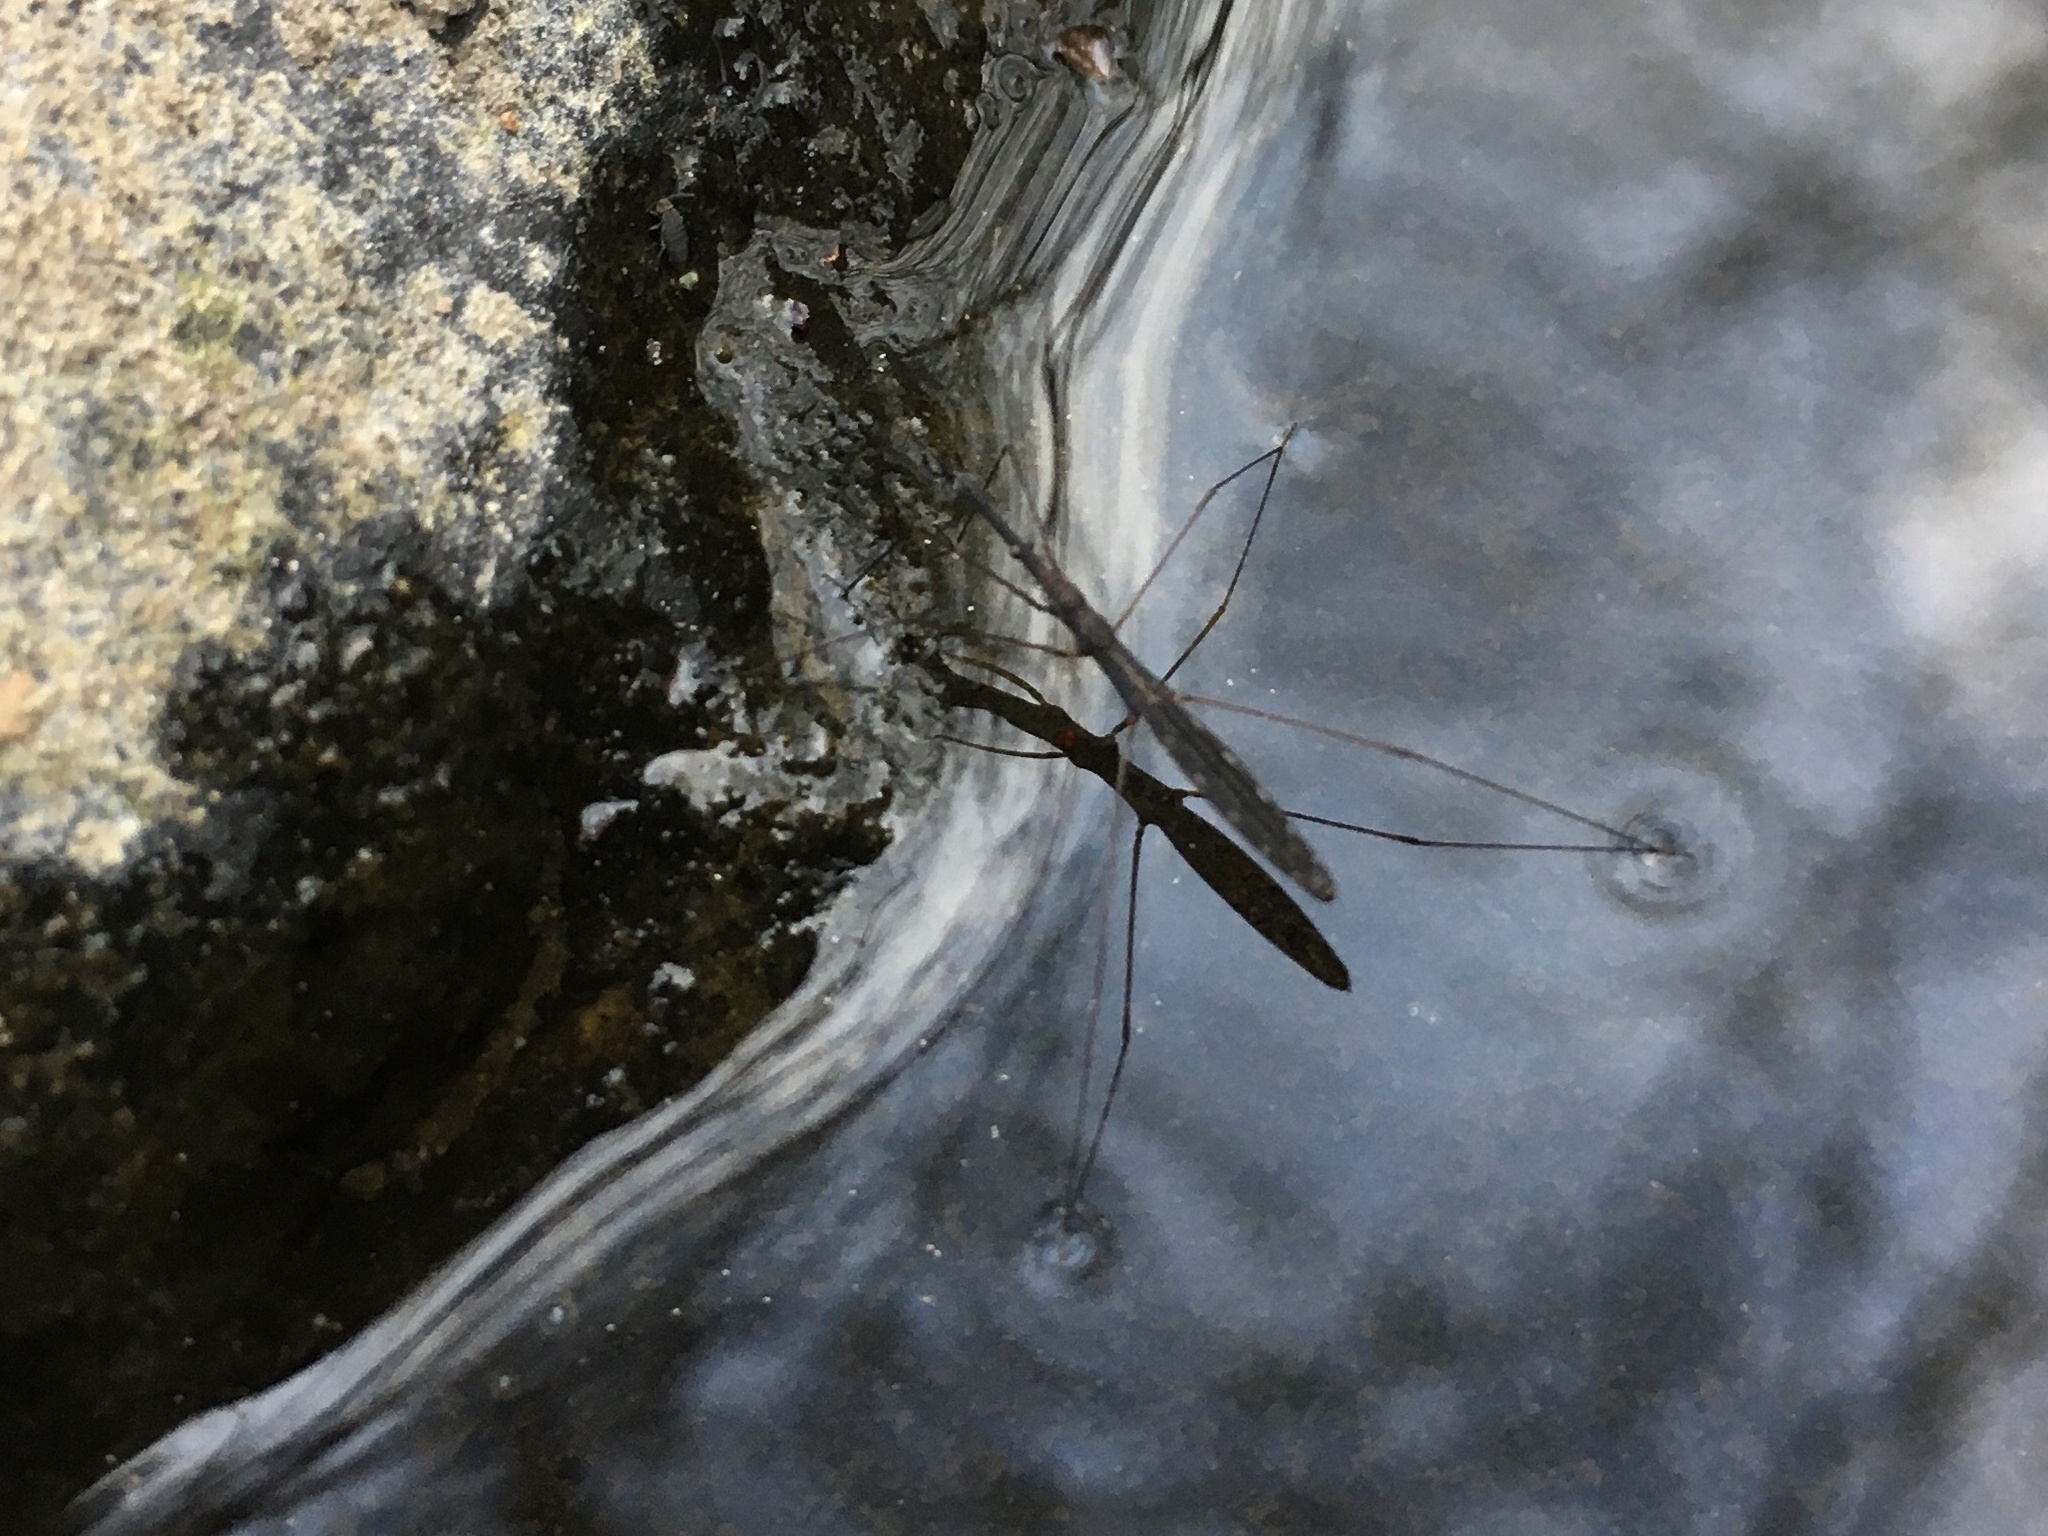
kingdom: Animalia
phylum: Arthropoda
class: Insecta
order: Hemiptera
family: Hydrometridae
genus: Hydrometra
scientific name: Hydrometra stagnorum
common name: Water measurer
